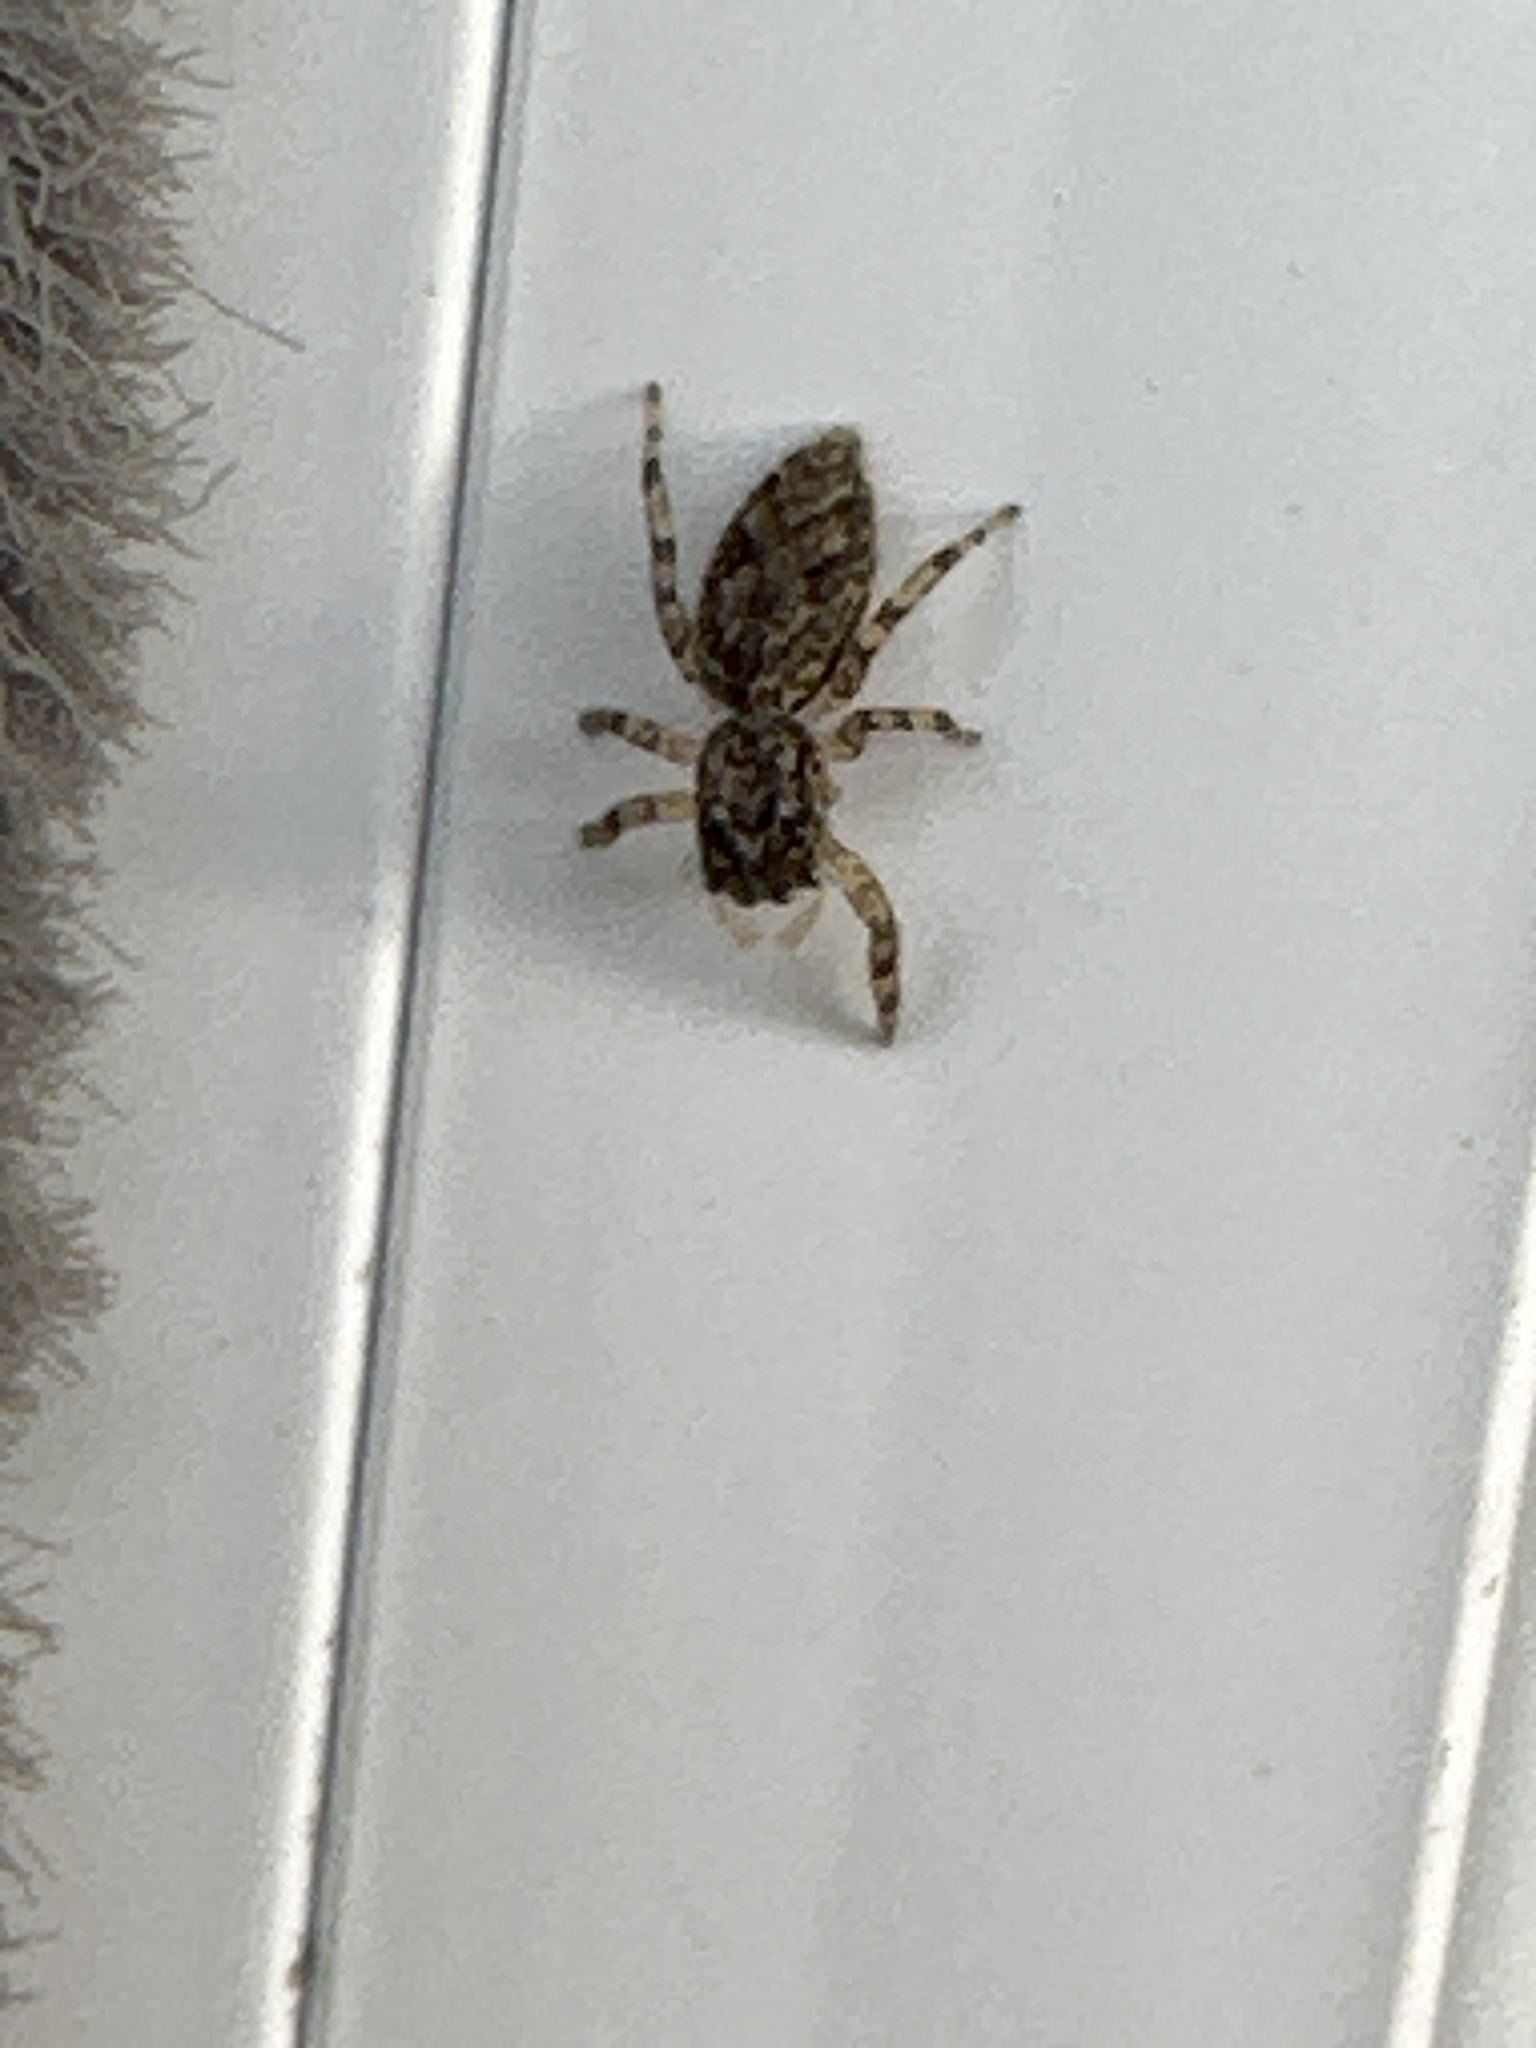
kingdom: Animalia
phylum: Arthropoda
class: Arachnida
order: Araneae
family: Salticidae
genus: Platycryptus
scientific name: Platycryptus undatus
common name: Tan jumping spider
